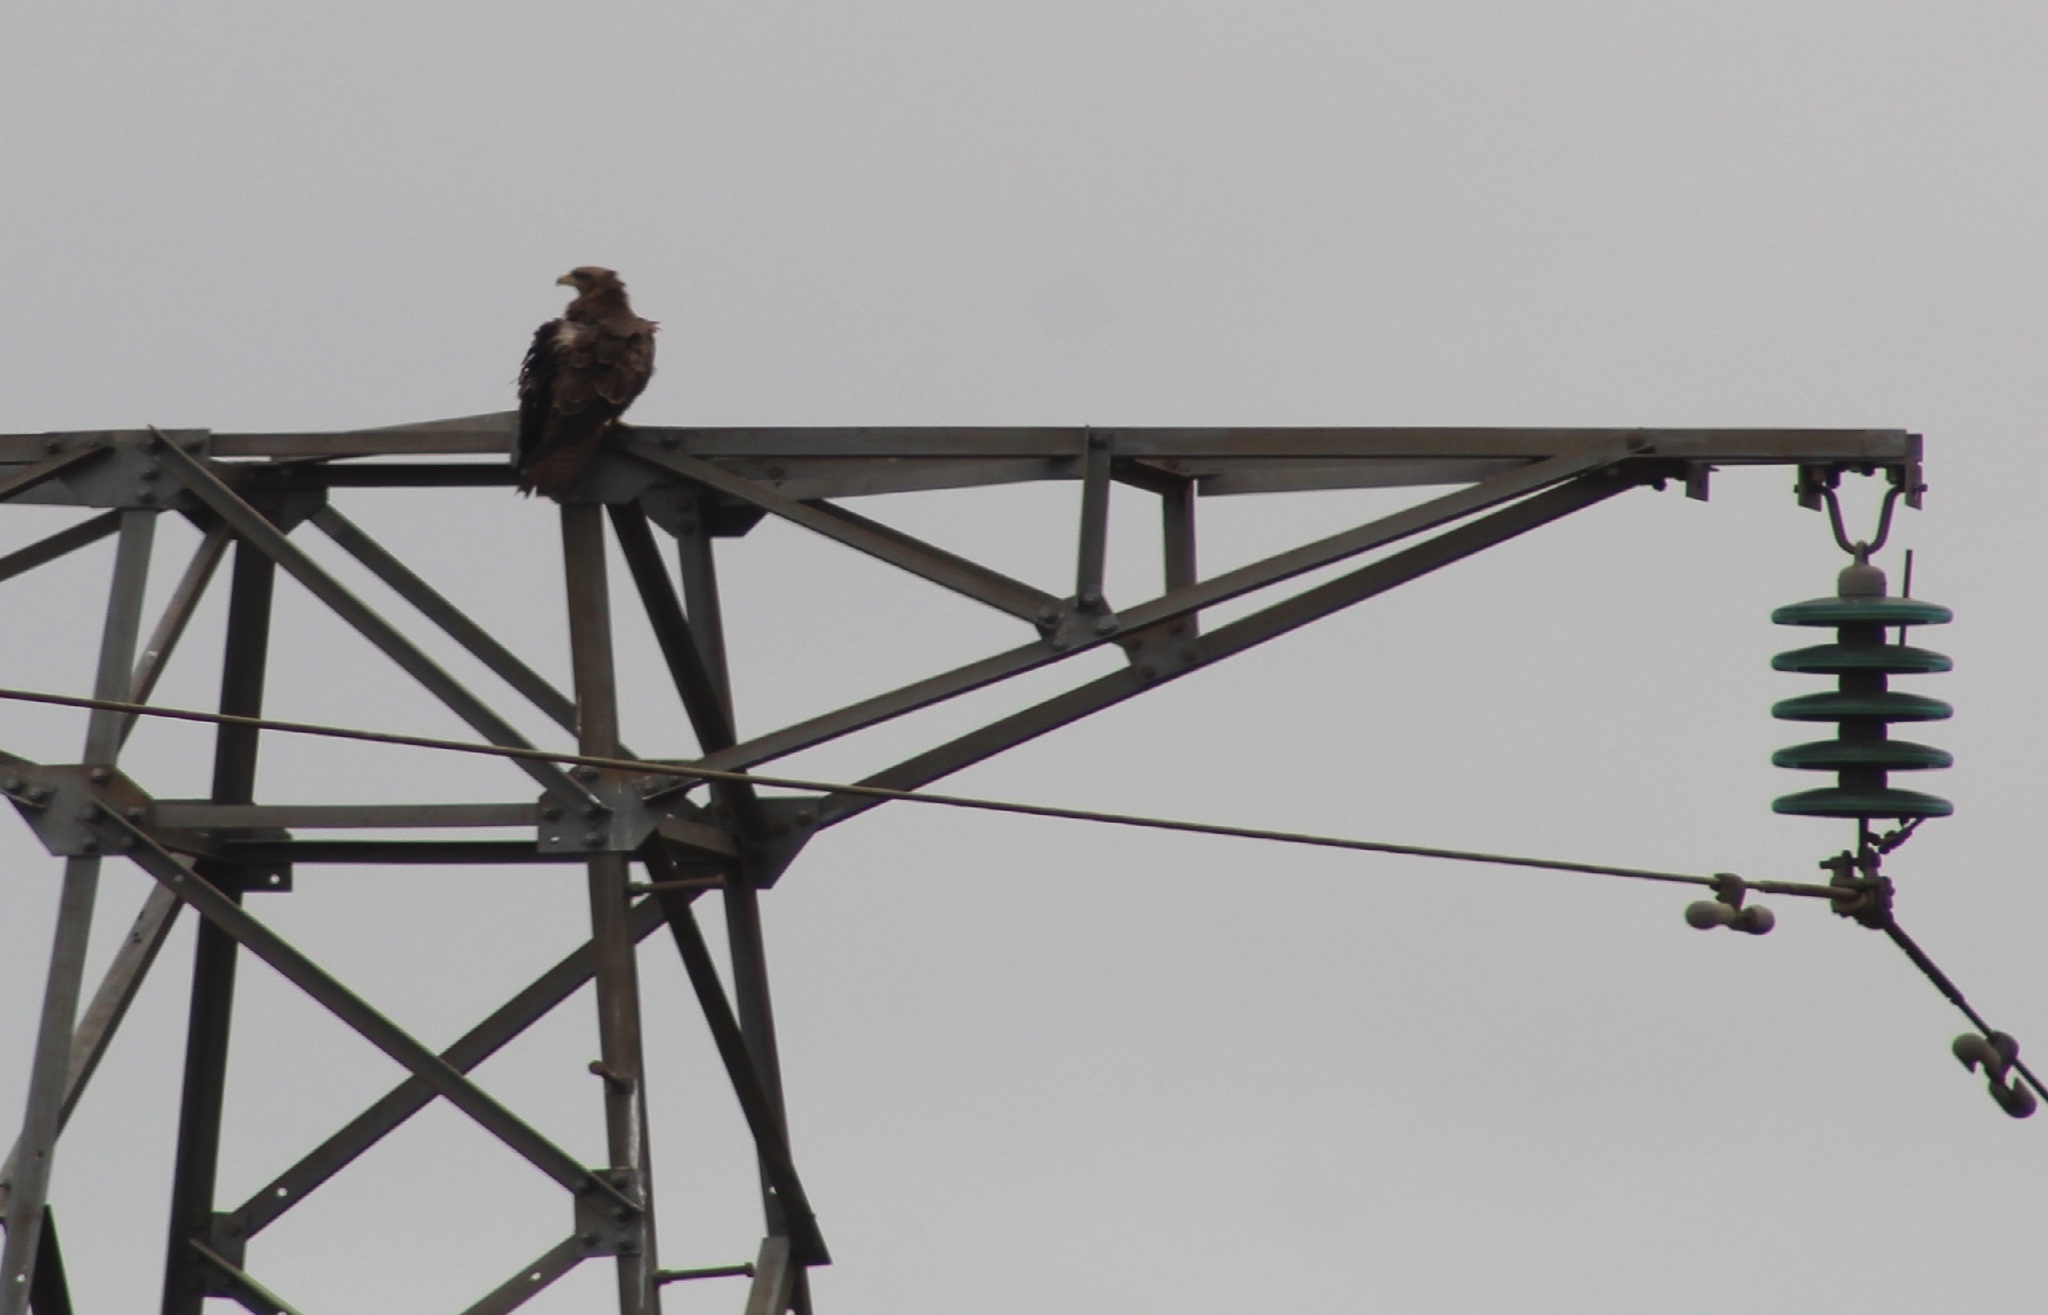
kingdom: Animalia
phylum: Chordata
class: Aves
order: Accipitriformes
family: Accipitridae
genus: Milvus
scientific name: Milvus migrans
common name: Black kite
